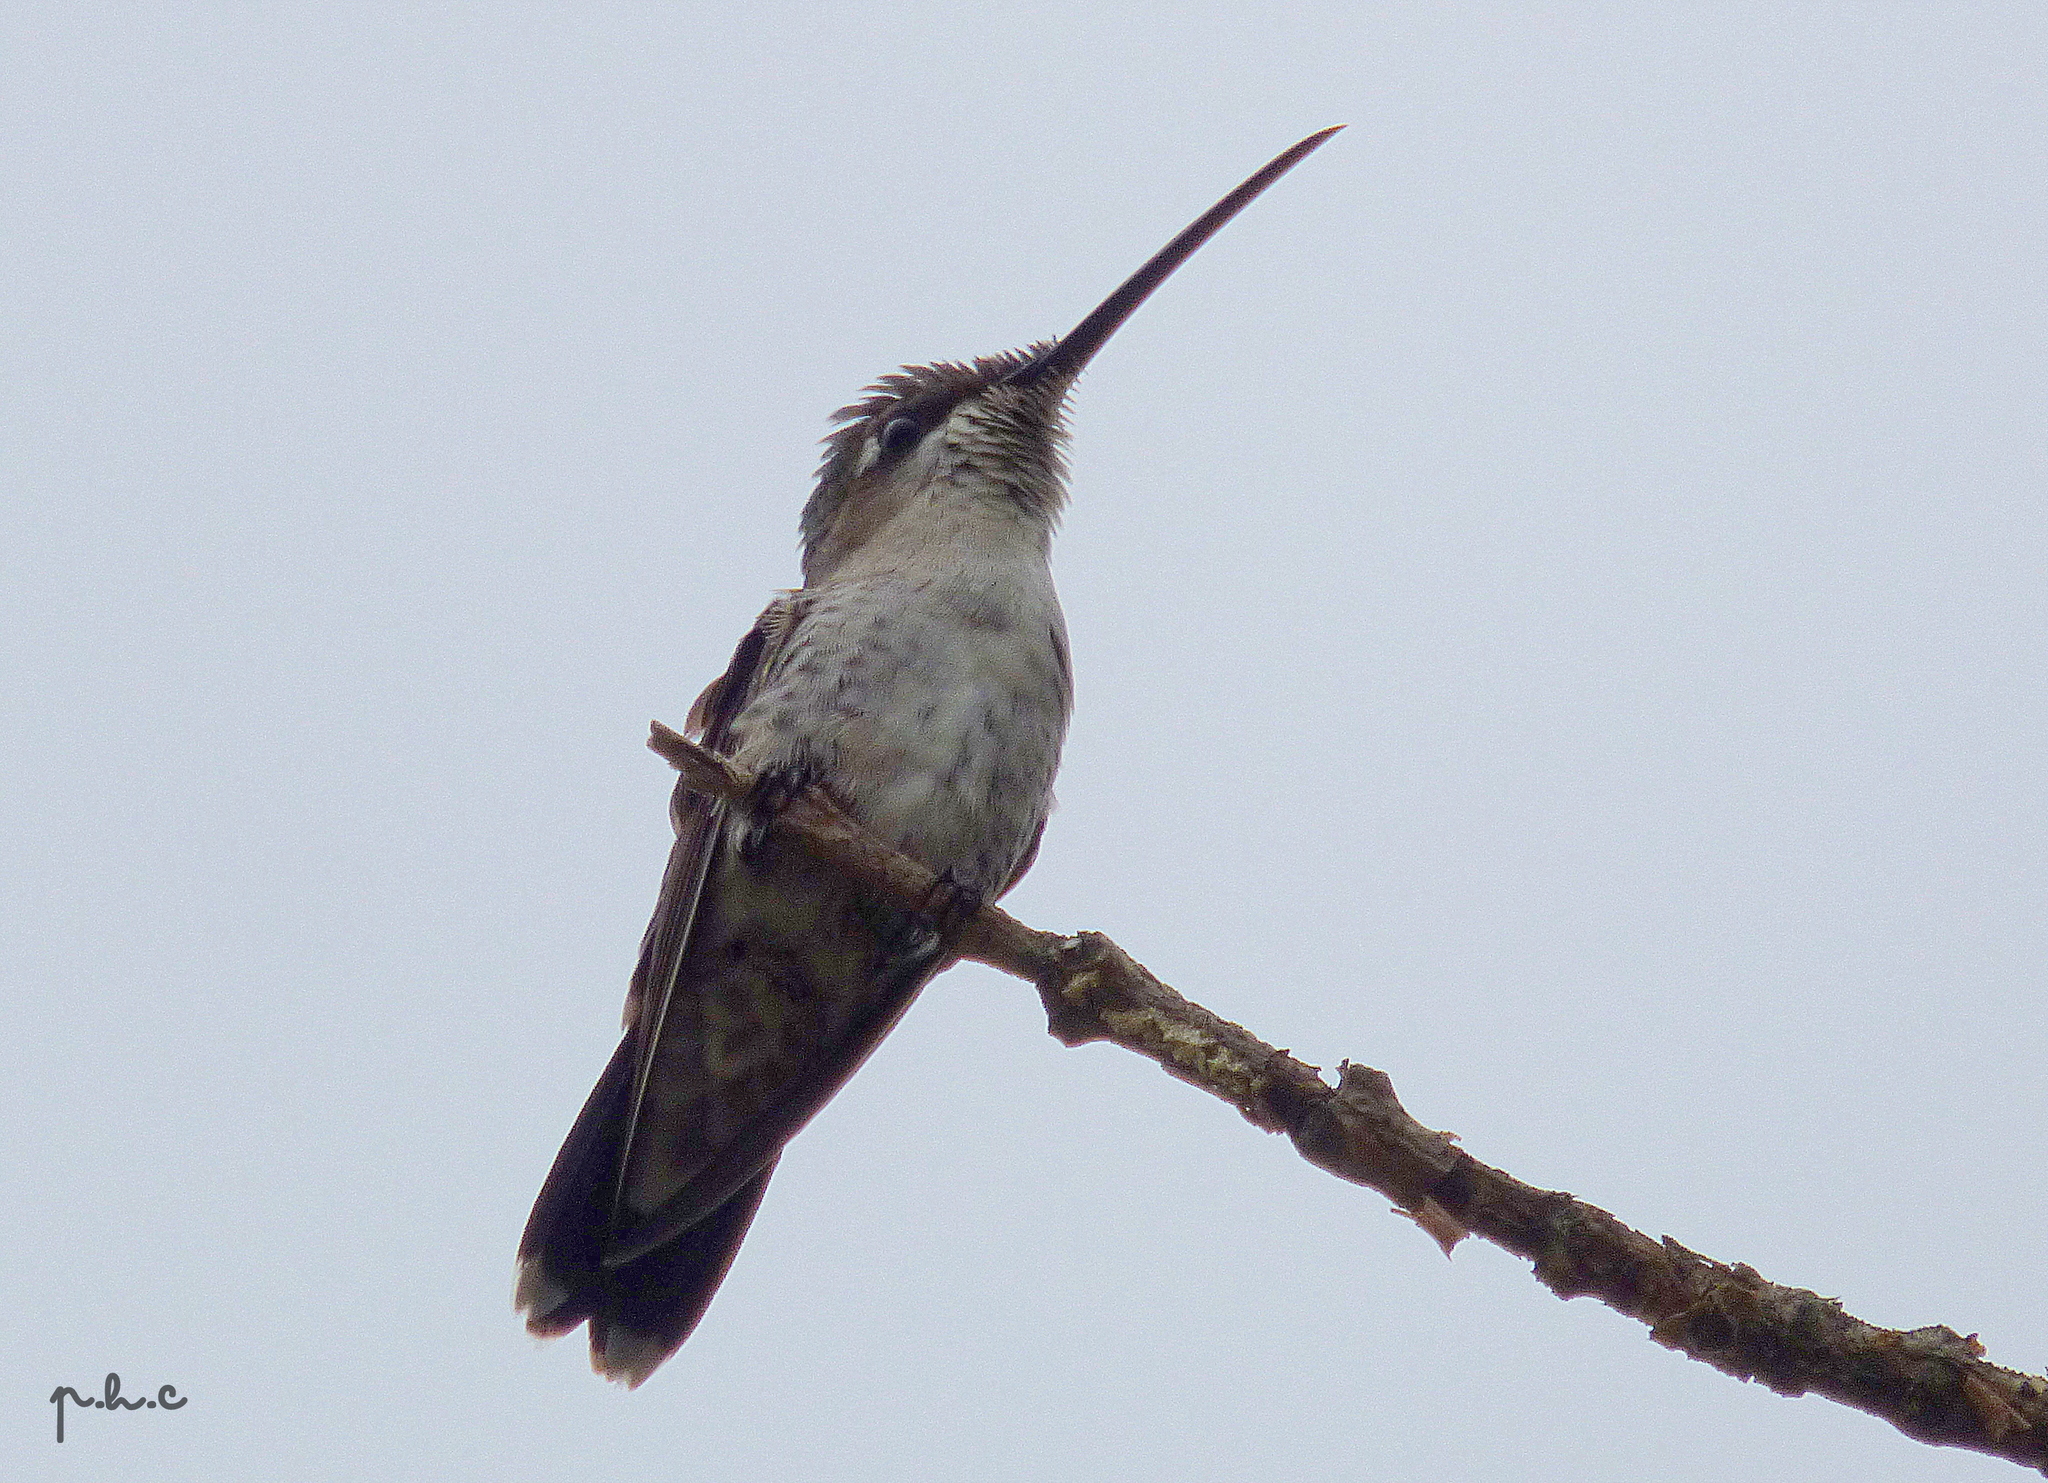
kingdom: Animalia
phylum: Chordata
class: Aves
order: Apodiformes
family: Trochilidae
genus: Heliomaster
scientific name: Heliomaster furcifer
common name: Blue-tufted starthroat
